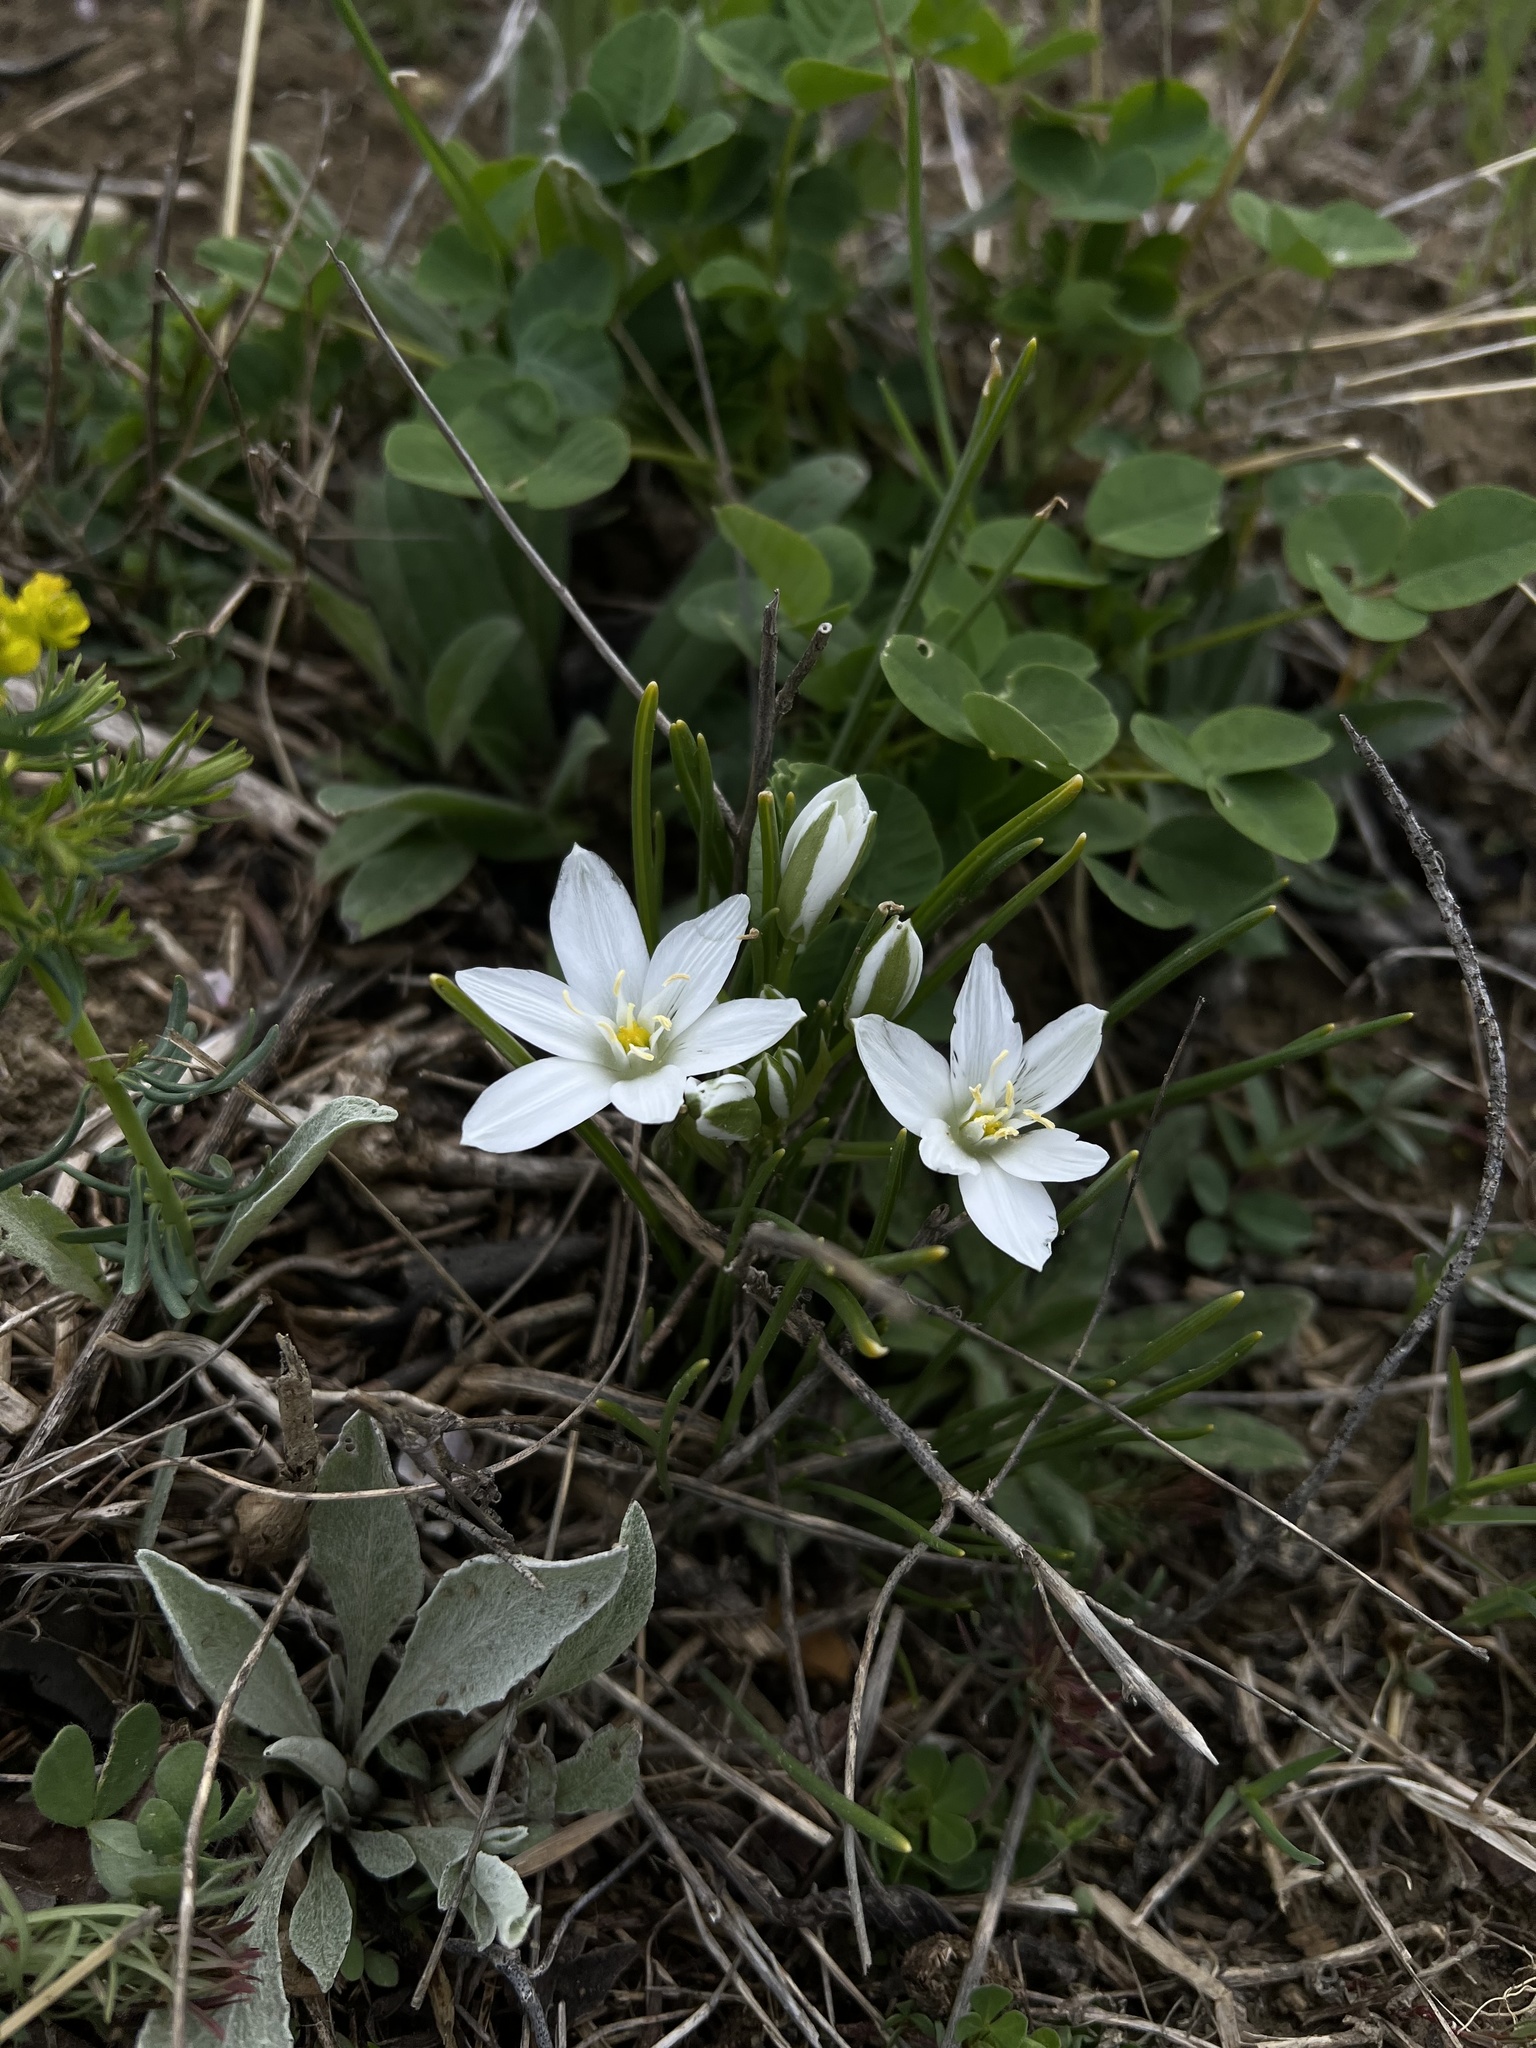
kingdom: Plantae
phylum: Tracheophyta
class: Liliopsida
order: Asparagales
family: Asparagaceae
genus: Ornithogalum
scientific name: Ornithogalum umbellatum
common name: Garden star-of-bethlehem
